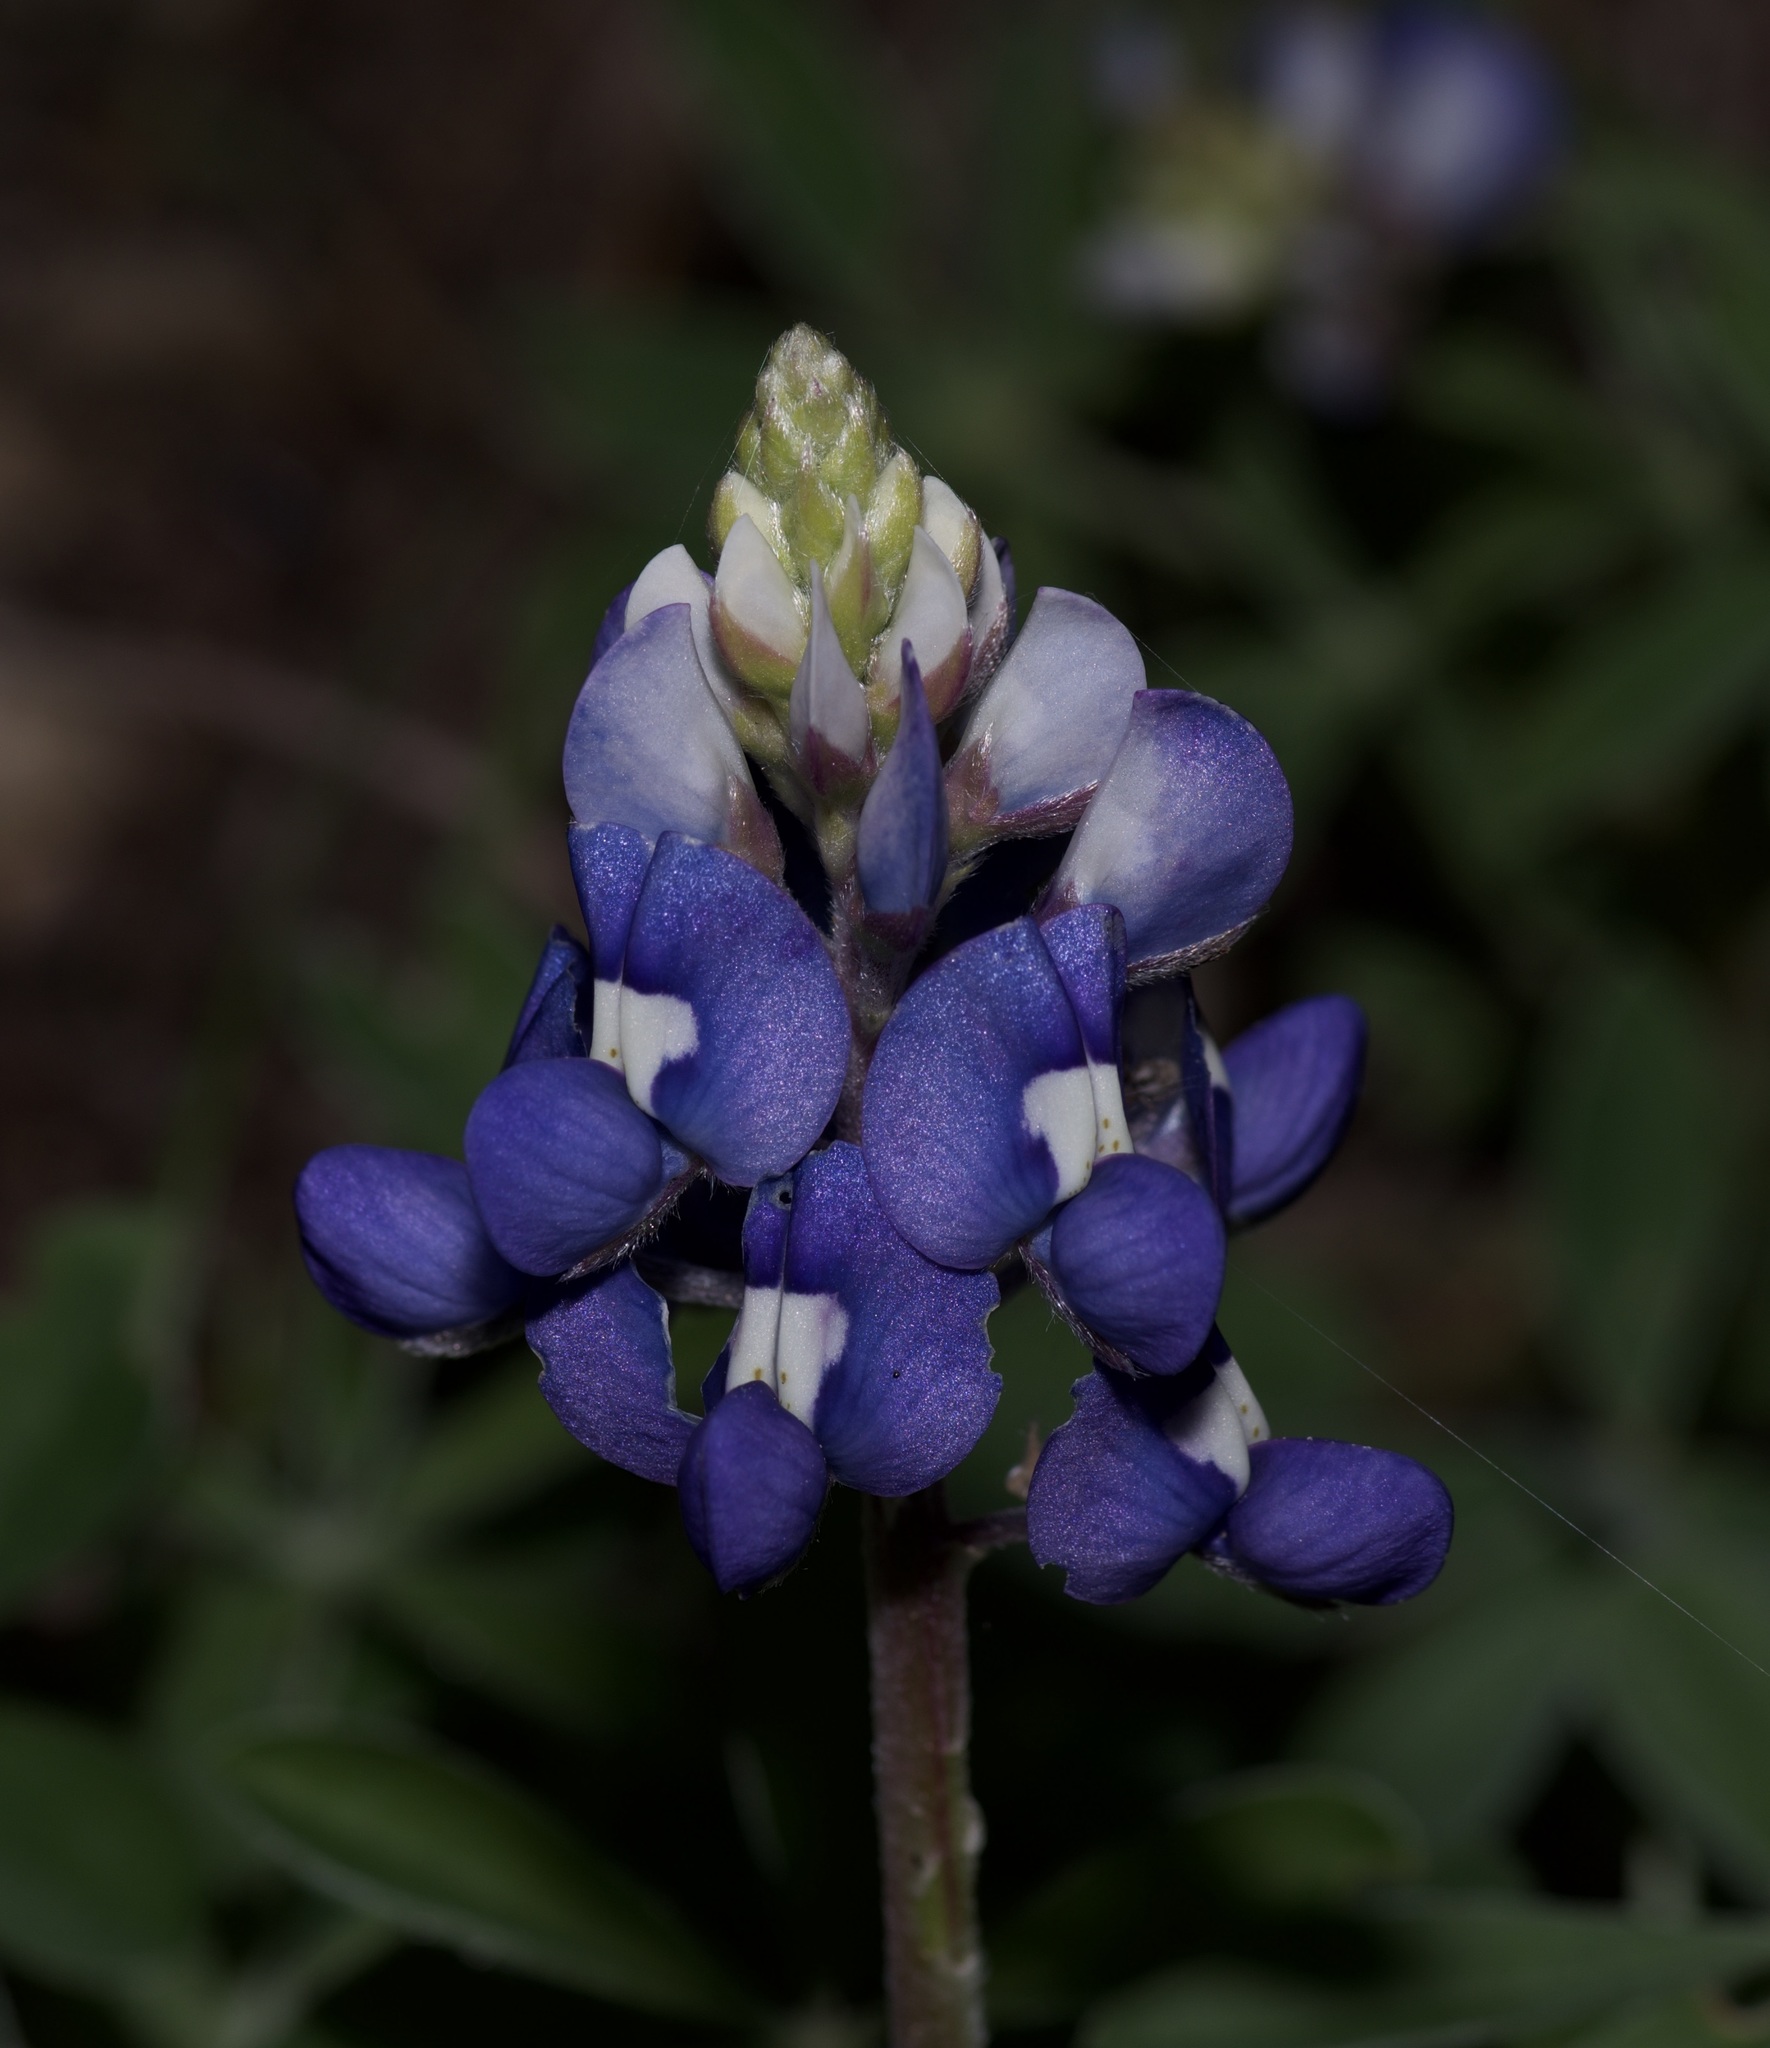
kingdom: Plantae
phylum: Tracheophyta
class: Magnoliopsida
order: Fabales
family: Fabaceae
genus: Lupinus
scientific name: Lupinus texensis
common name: Texas bluebonnet
